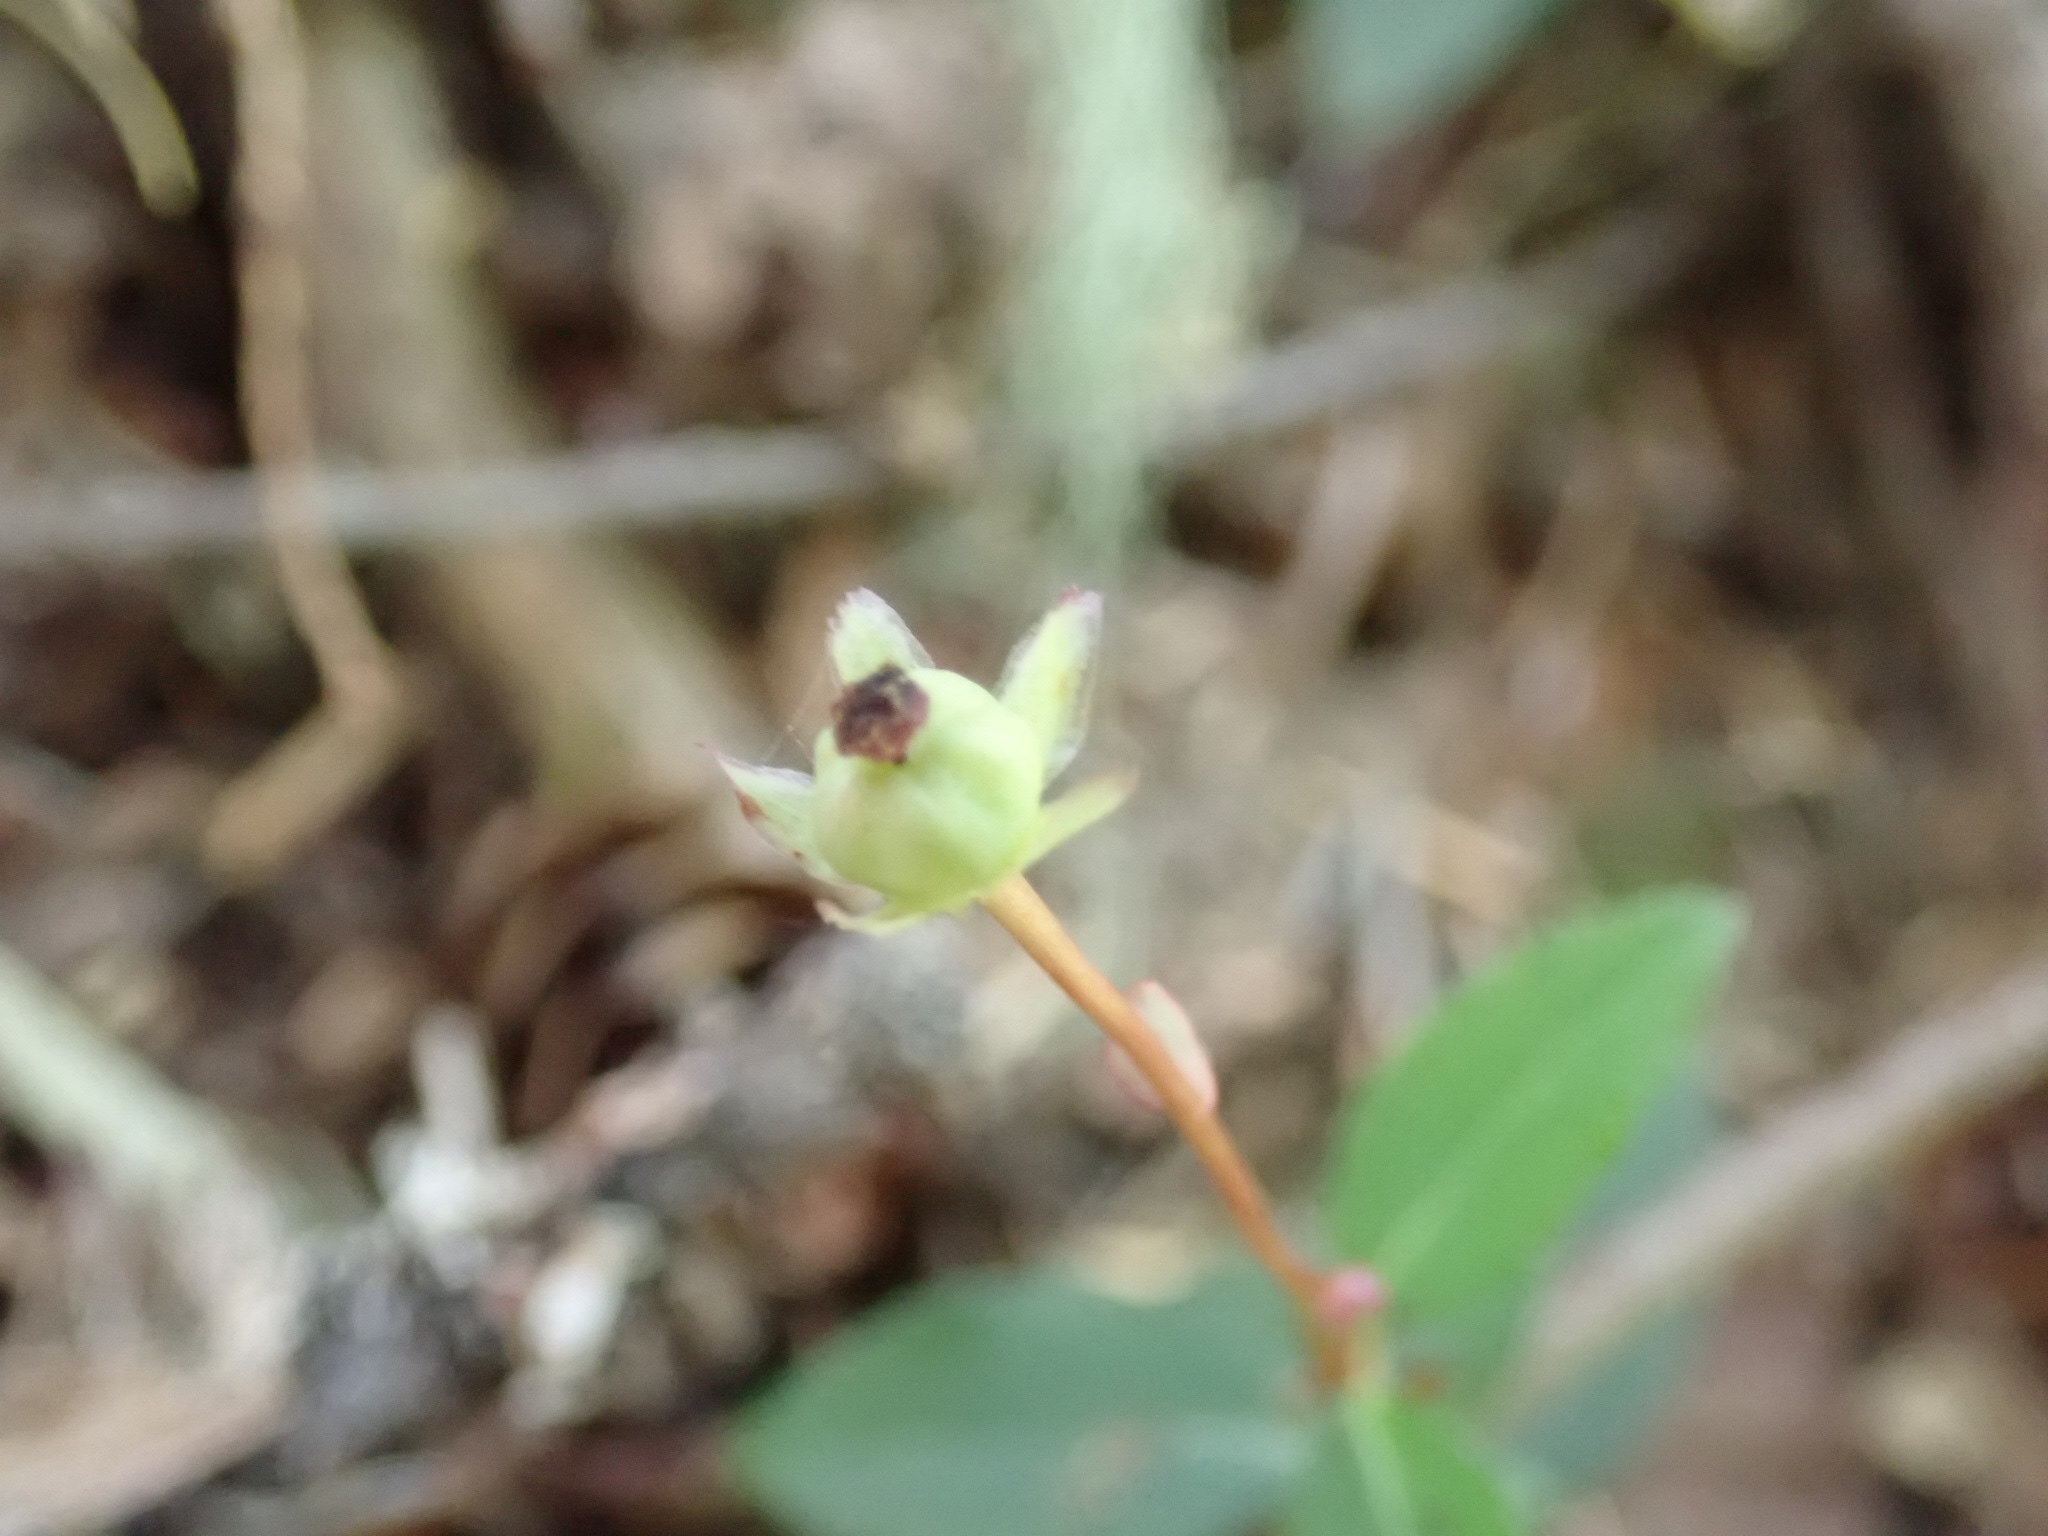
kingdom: Plantae
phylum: Tracheophyta
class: Magnoliopsida
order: Ericales
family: Ericaceae
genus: Chimaphila
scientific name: Chimaphila menziesii
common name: Menzies' pipsissewa
